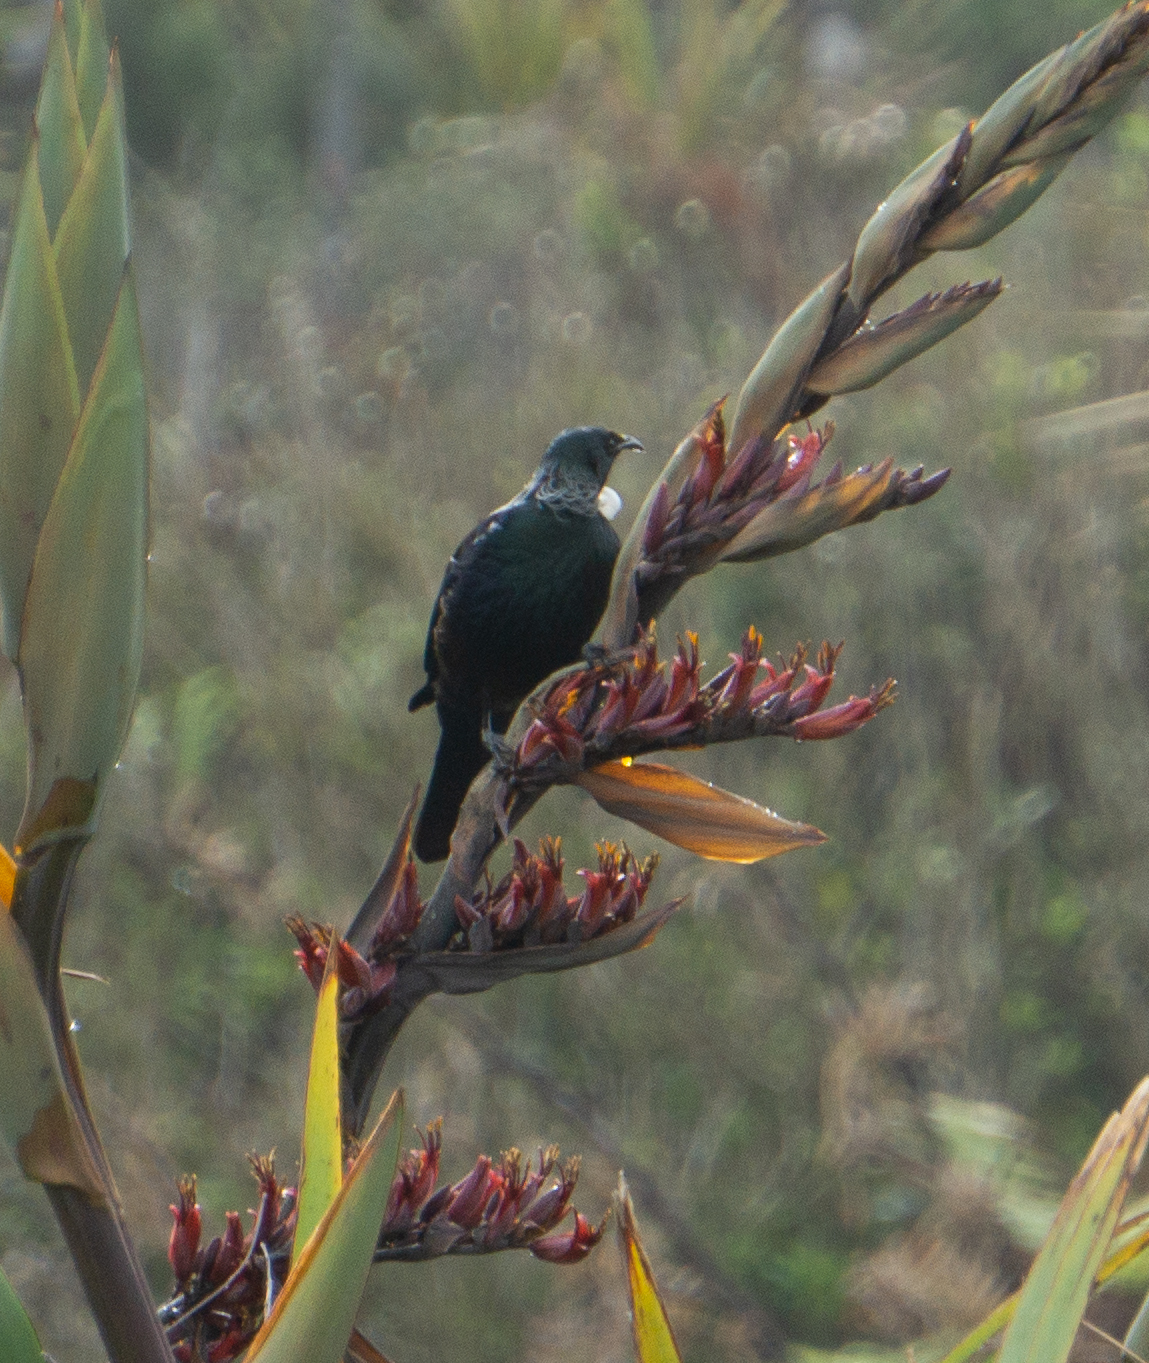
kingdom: Animalia
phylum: Chordata
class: Aves
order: Passeriformes
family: Meliphagidae
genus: Prosthemadera
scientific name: Prosthemadera novaeseelandiae
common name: Tui
